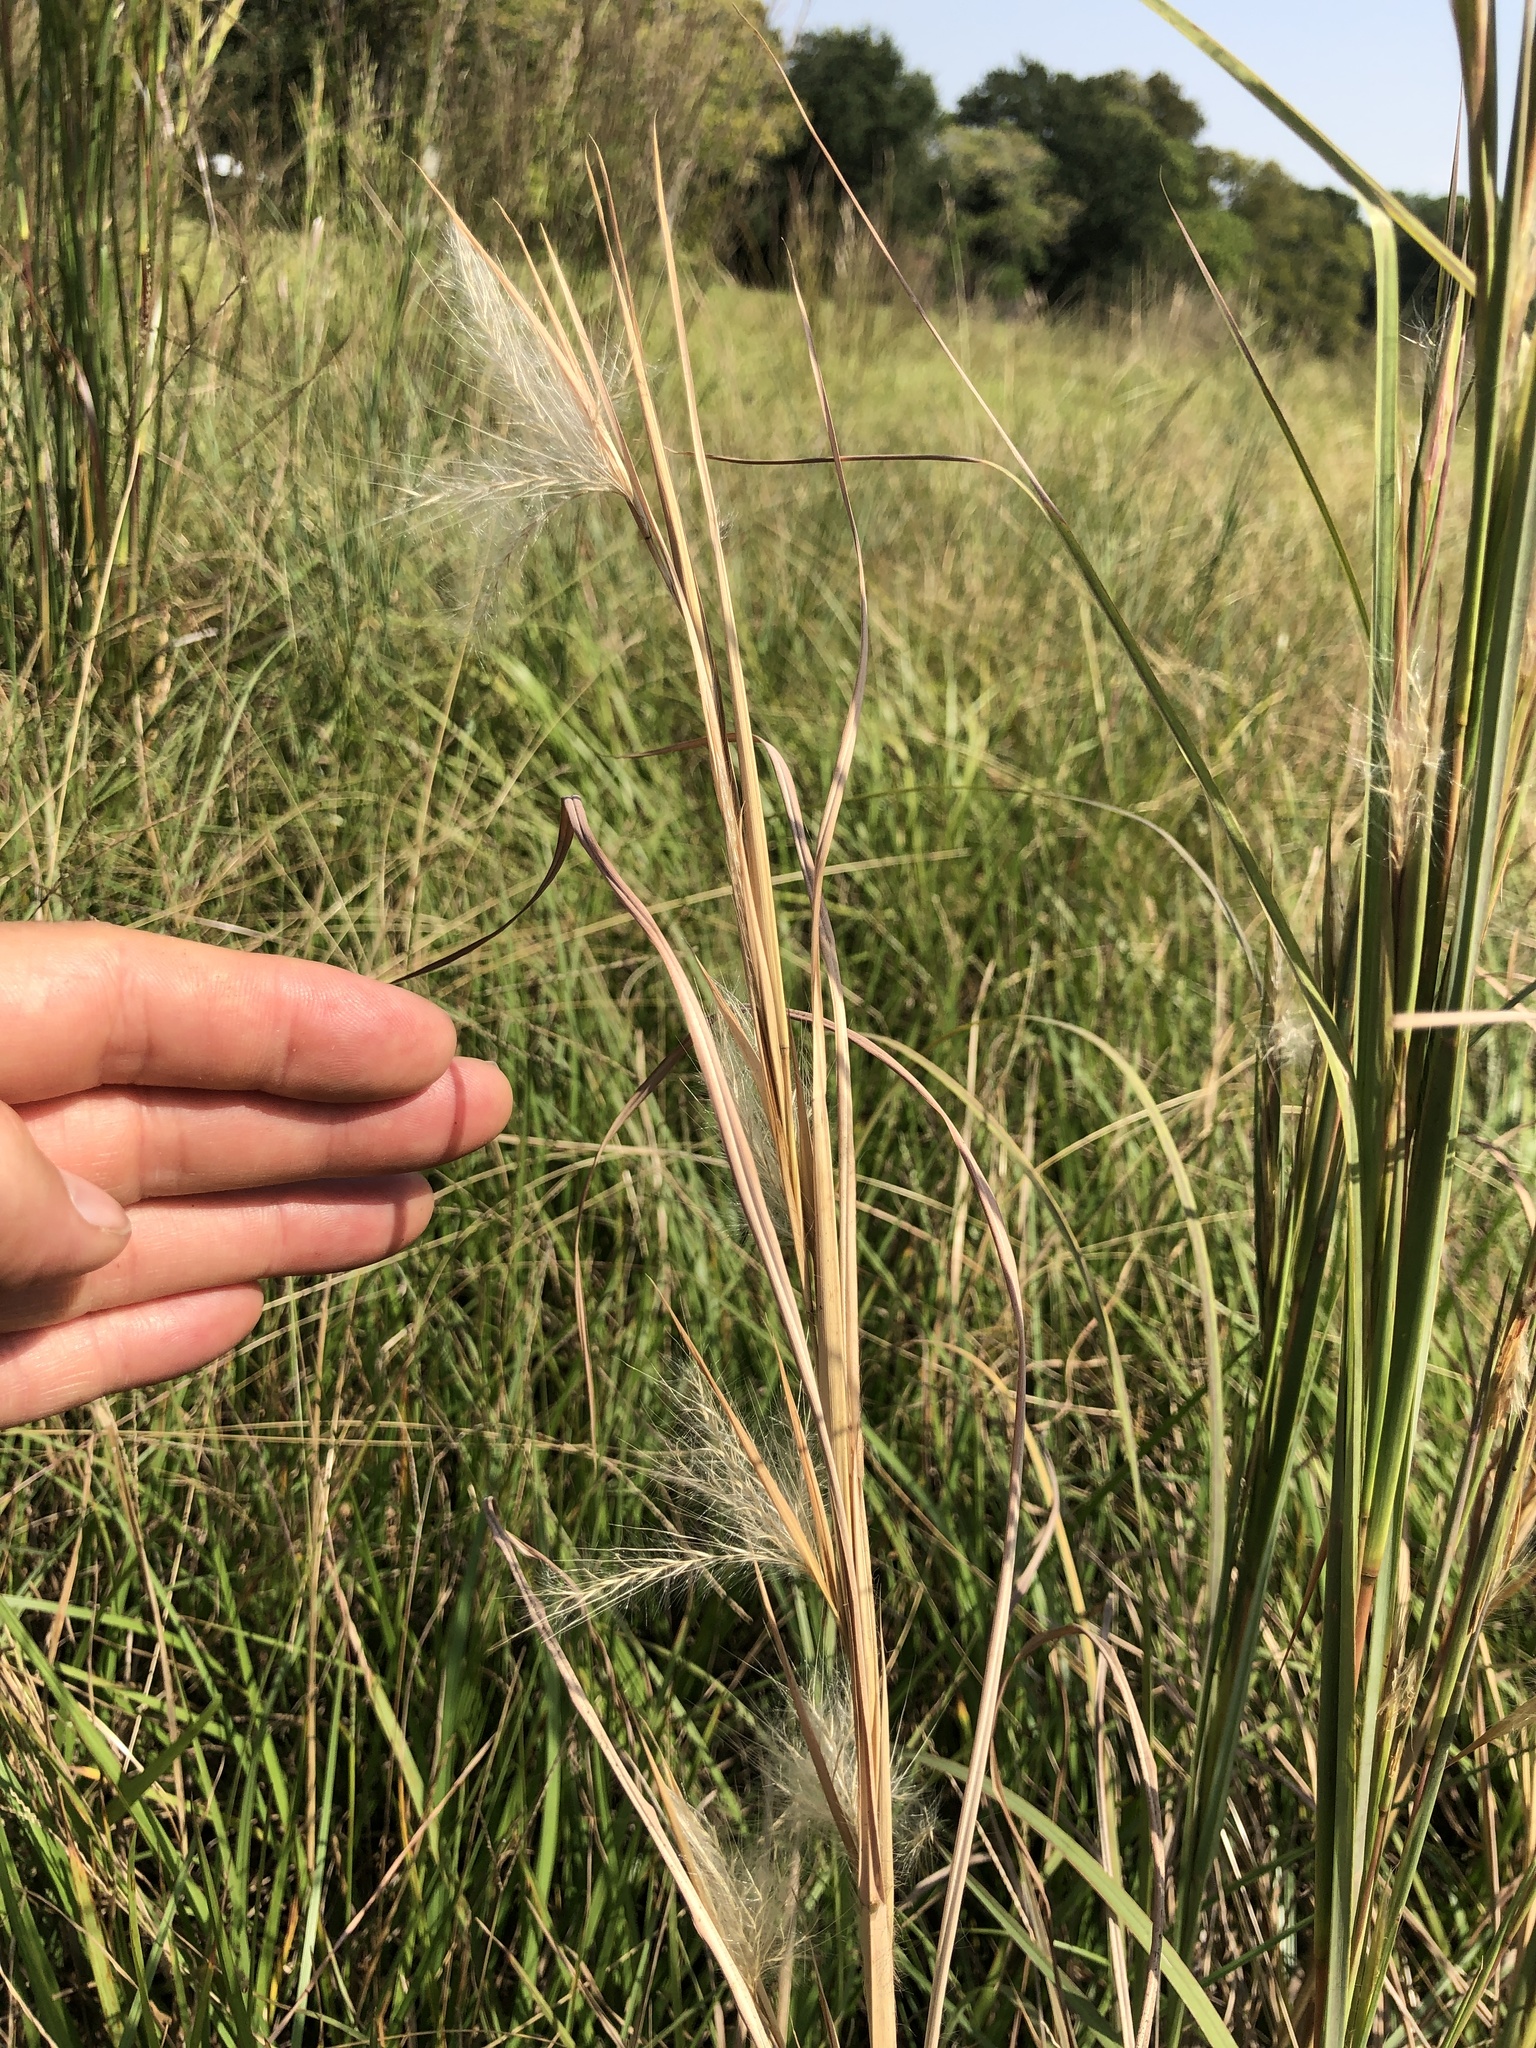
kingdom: Plantae
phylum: Tracheophyta
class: Liliopsida
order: Poales
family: Poaceae
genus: Andropogon
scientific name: Andropogon virginicus
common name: Broomsedge bluestem
